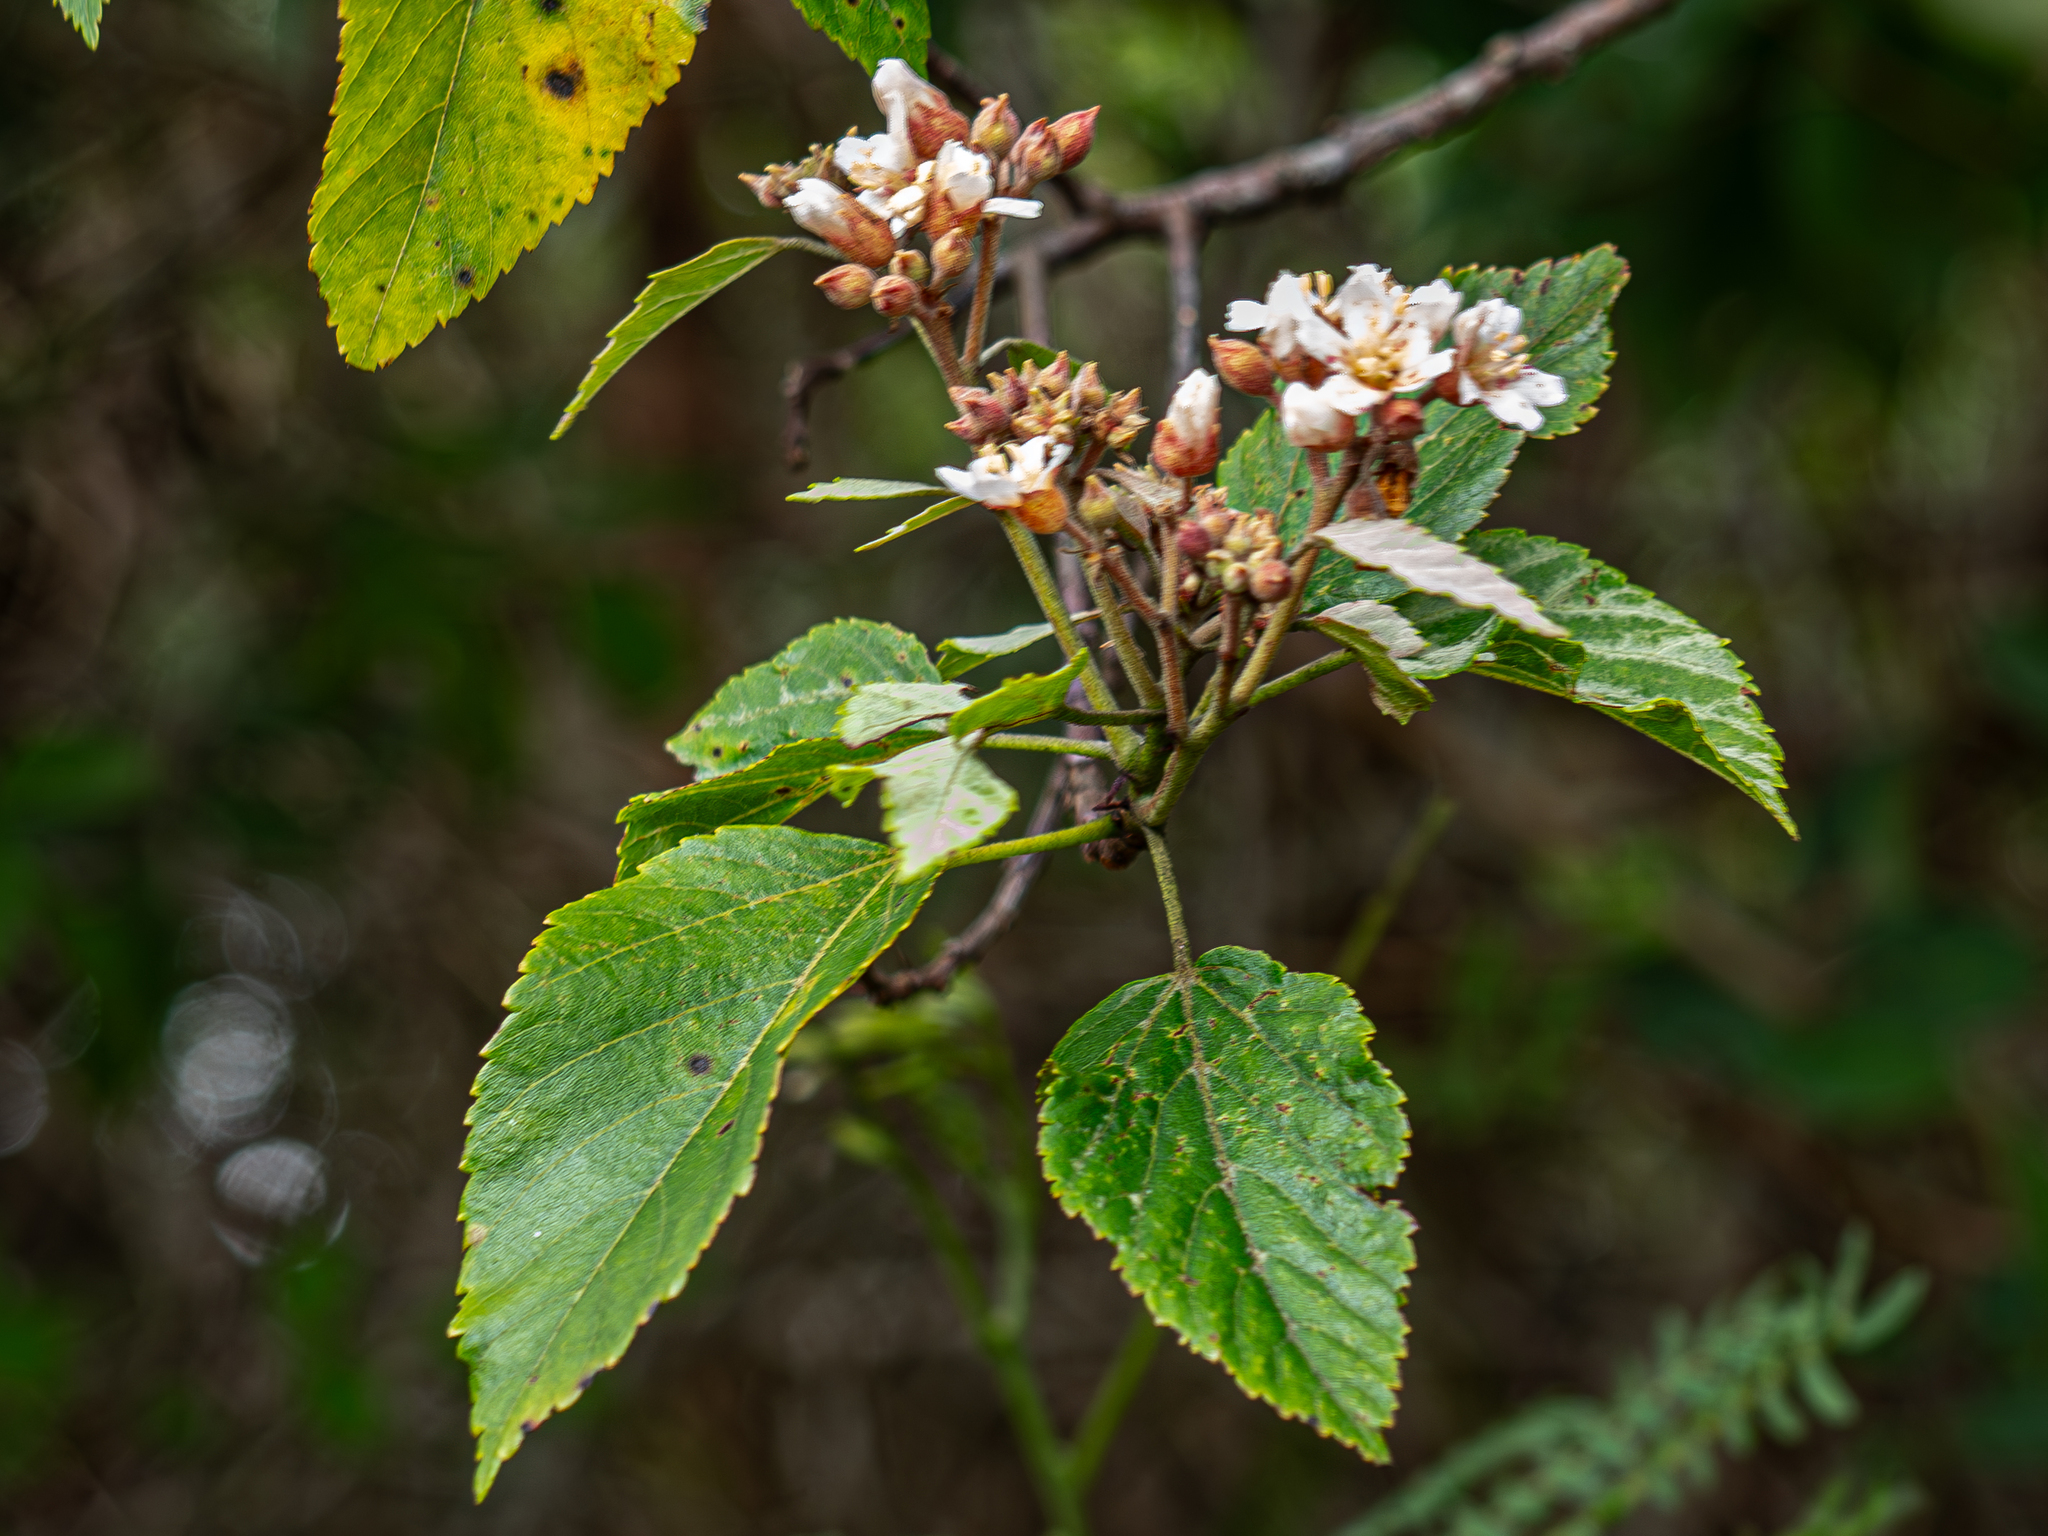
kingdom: Plantae
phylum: Tracheophyta
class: Magnoliopsida
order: Malvales
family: Malvaceae
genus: Melochia
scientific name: Melochia odorata
